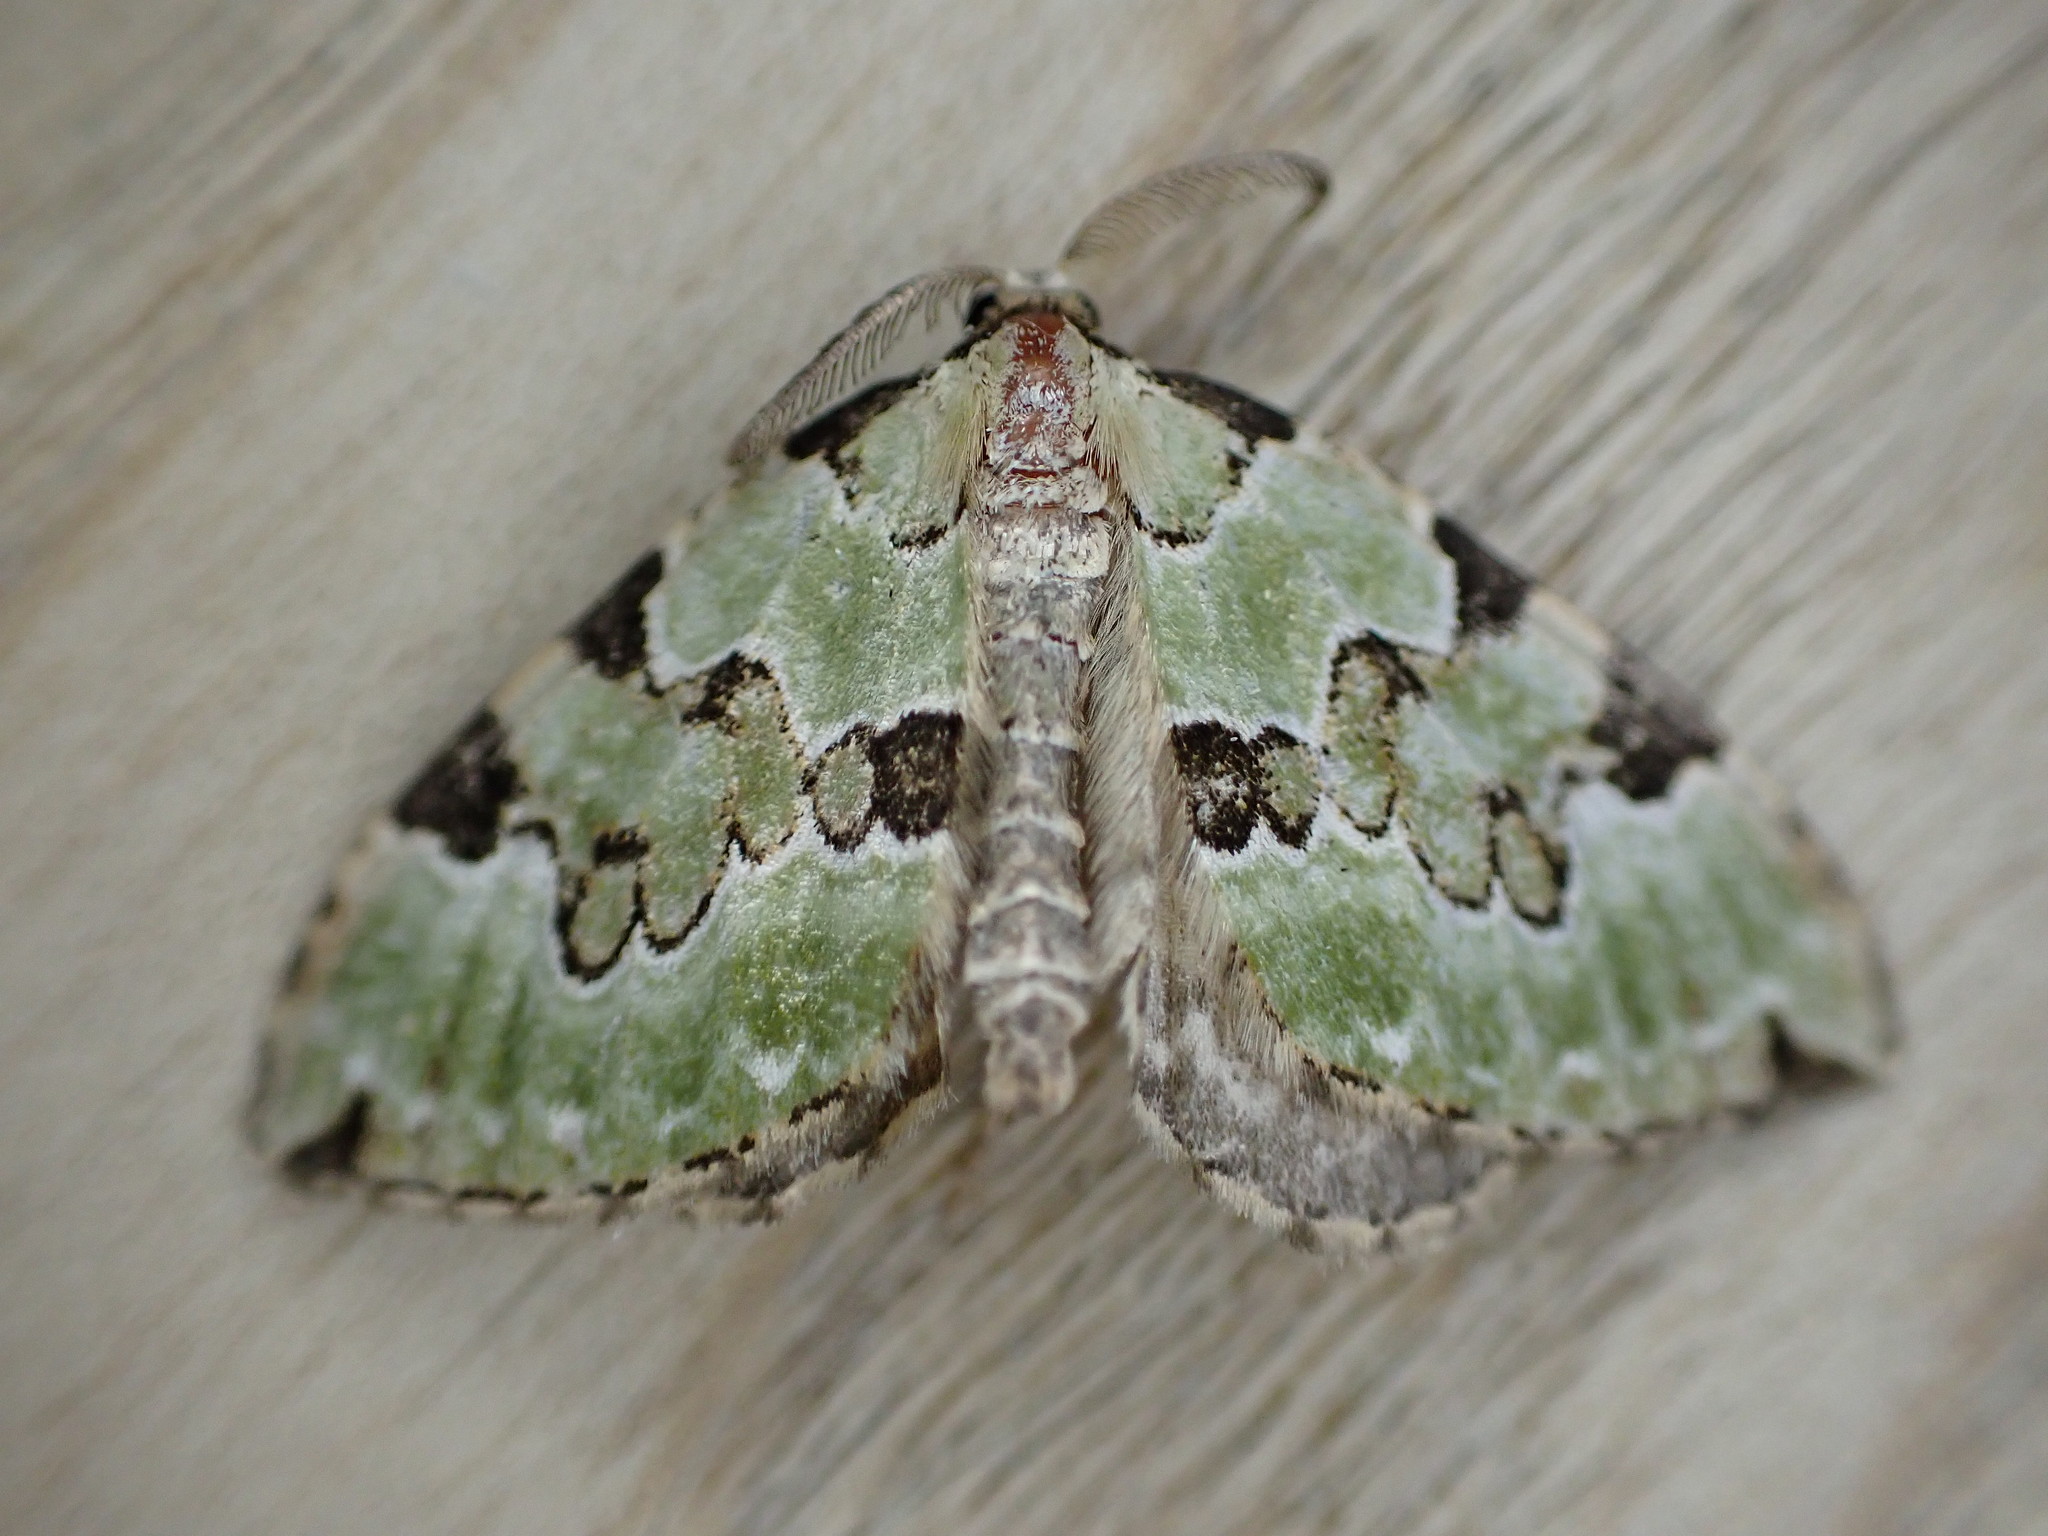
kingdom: Animalia
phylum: Arthropoda
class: Insecta
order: Lepidoptera
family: Geometridae
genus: Colostygia
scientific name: Colostygia pectinataria
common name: Green carpet
